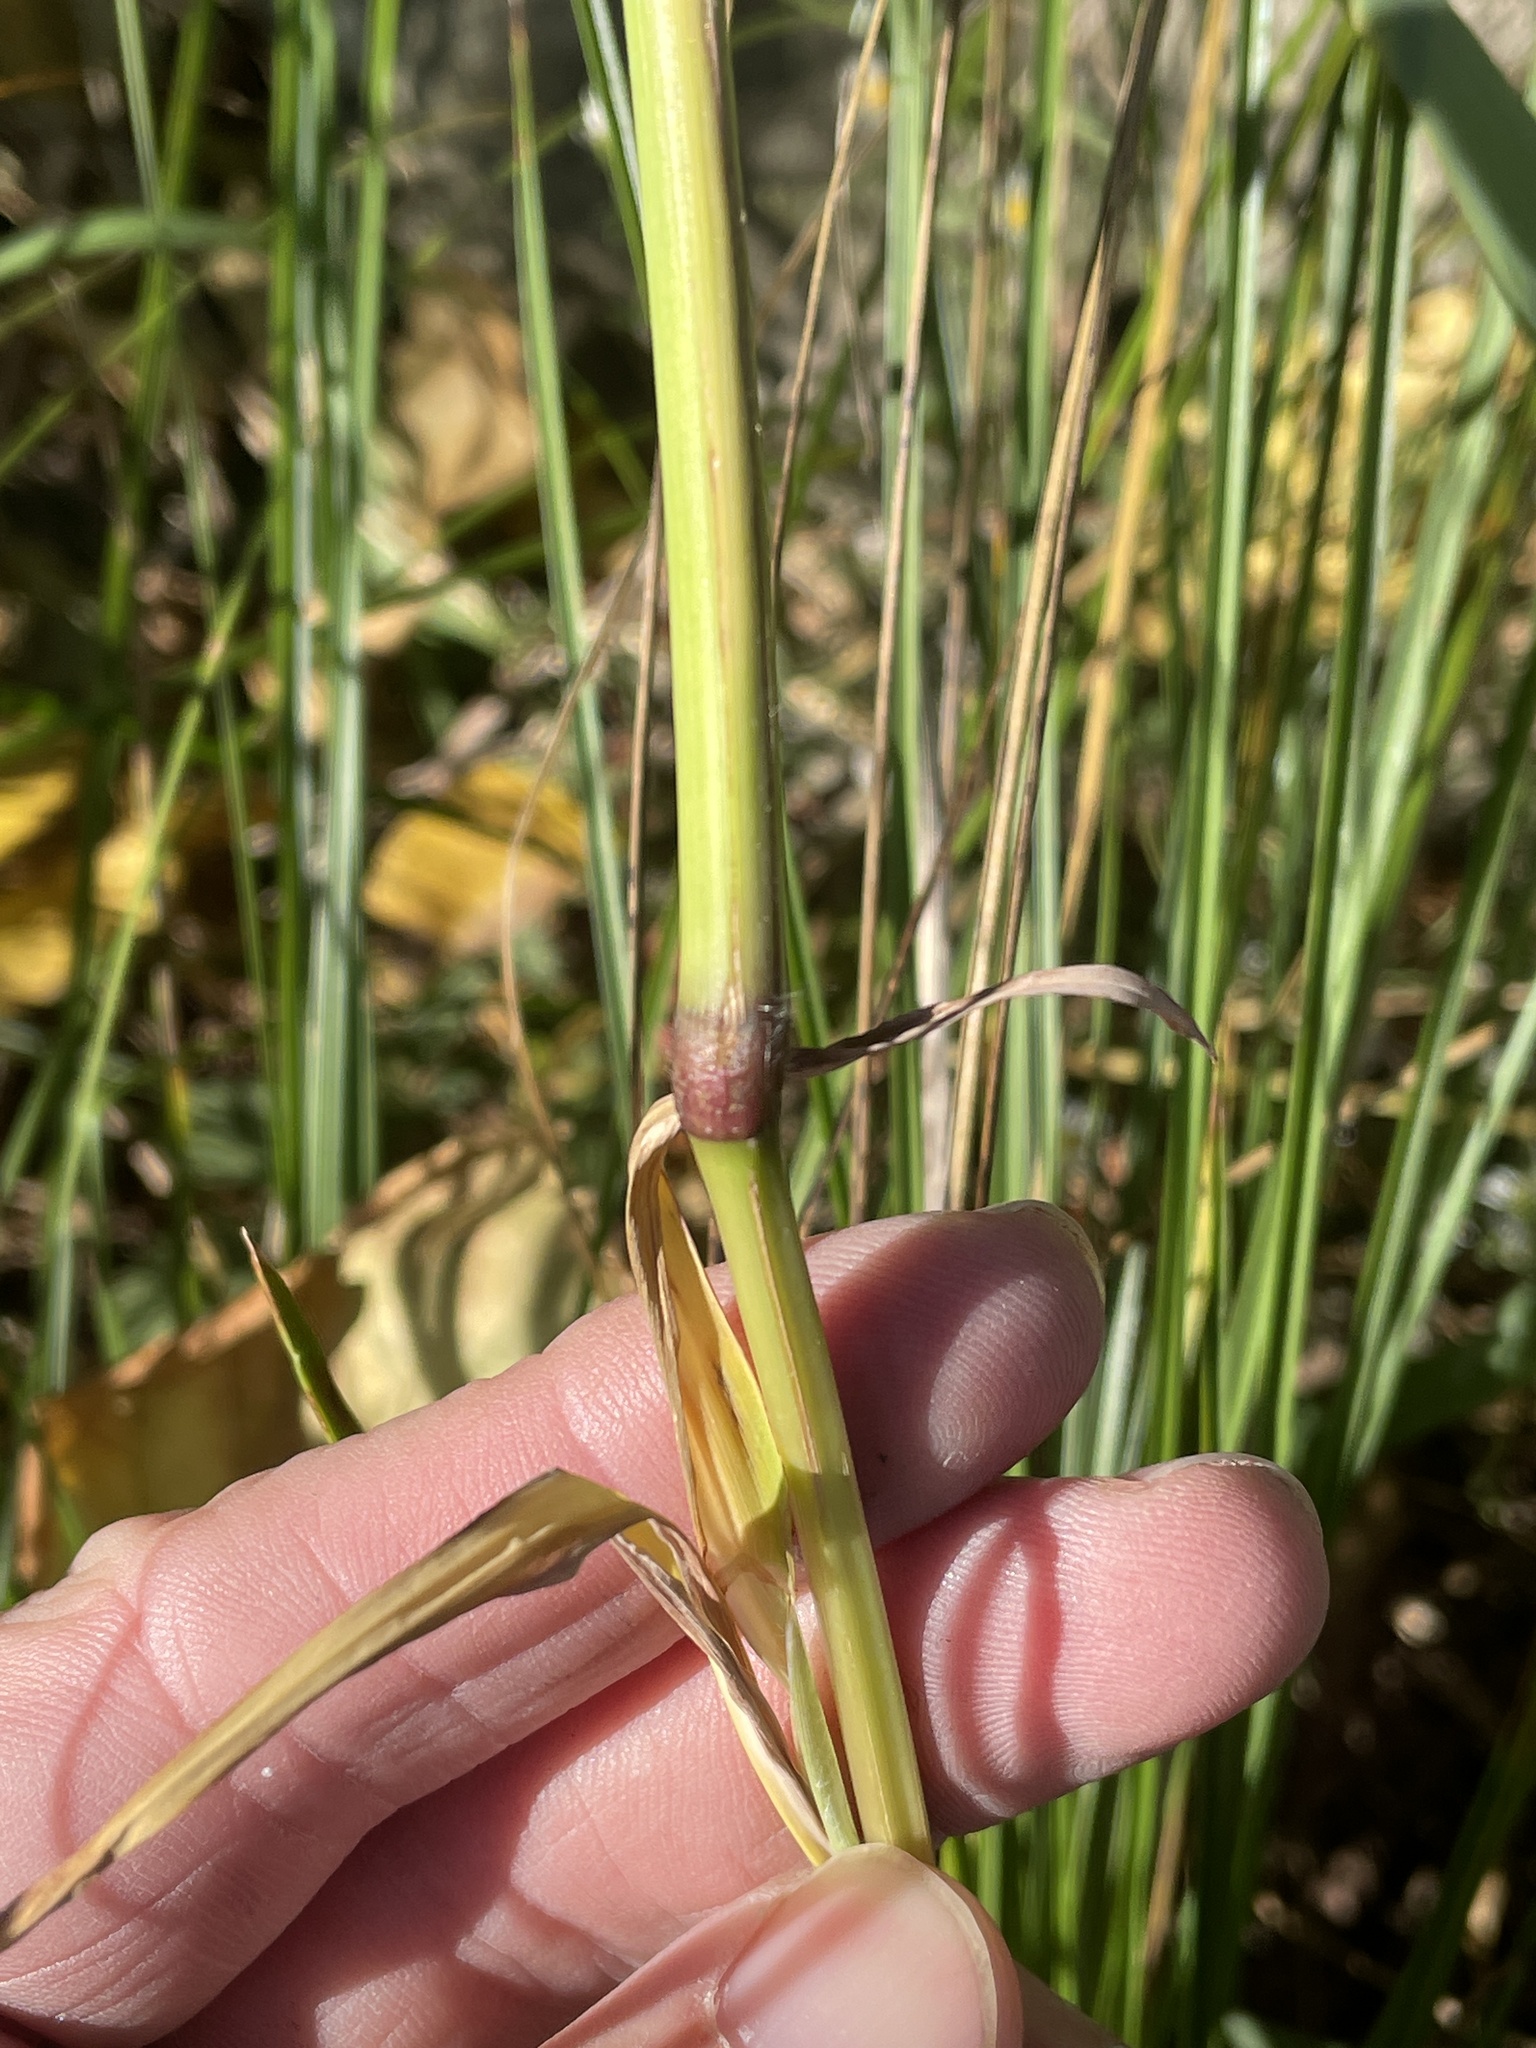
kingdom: Plantae
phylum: Tracheophyta
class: Liliopsida
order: Poales
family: Poaceae
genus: Paspalum
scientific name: Paspalum pubiflorum
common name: Hairy-seed paspalum
